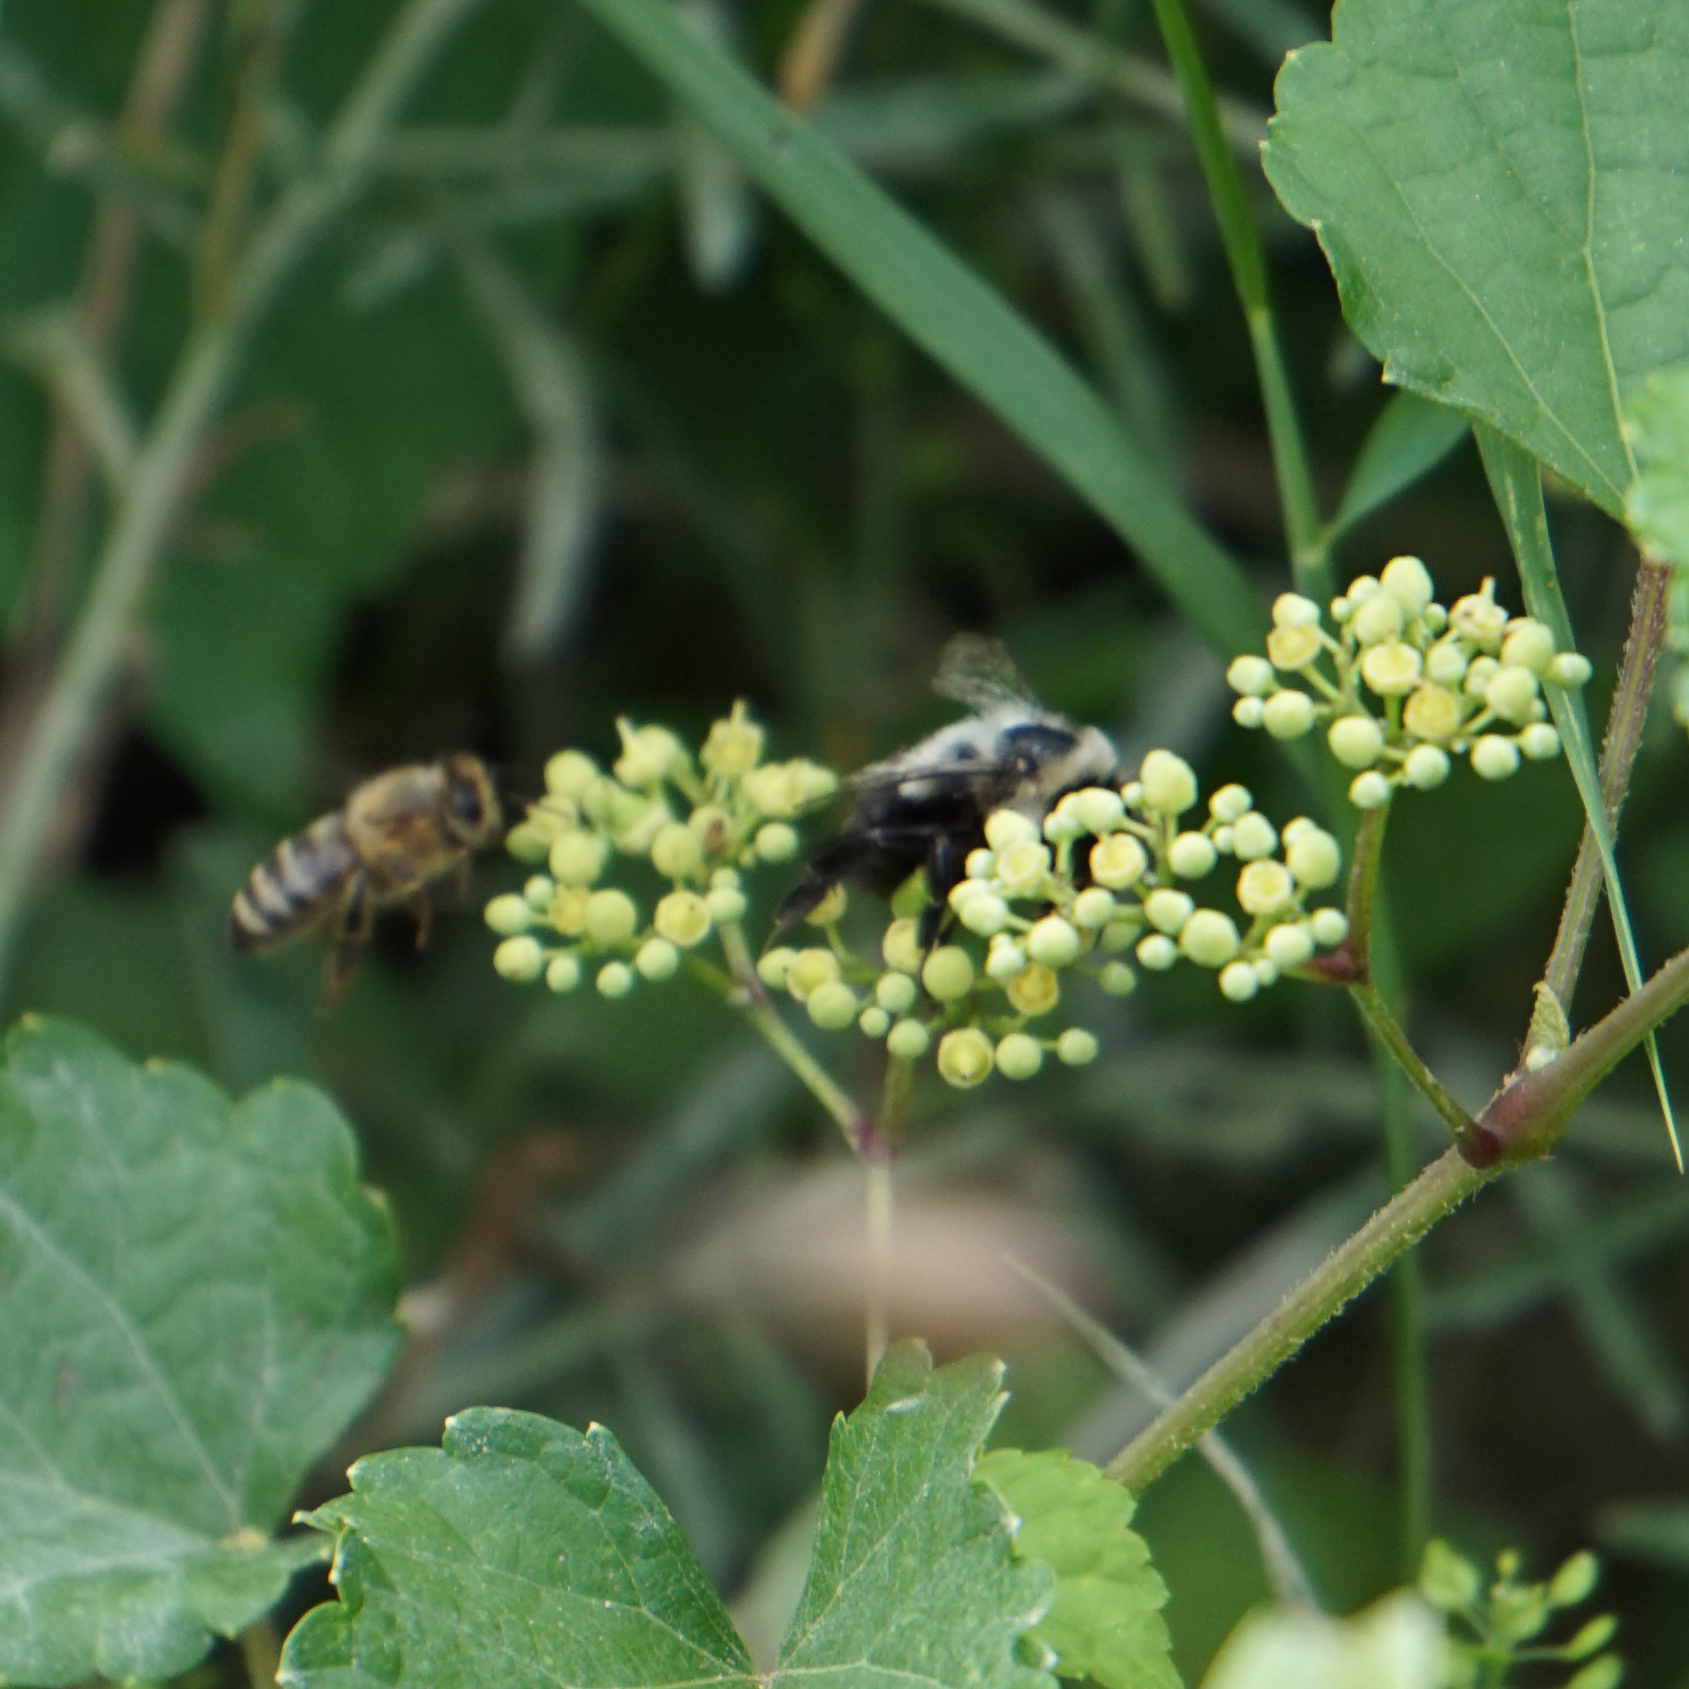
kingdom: Animalia
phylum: Arthropoda
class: Insecta
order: Hymenoptera
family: Apidae
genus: Apis
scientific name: Apis mellifera
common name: Honey bee
